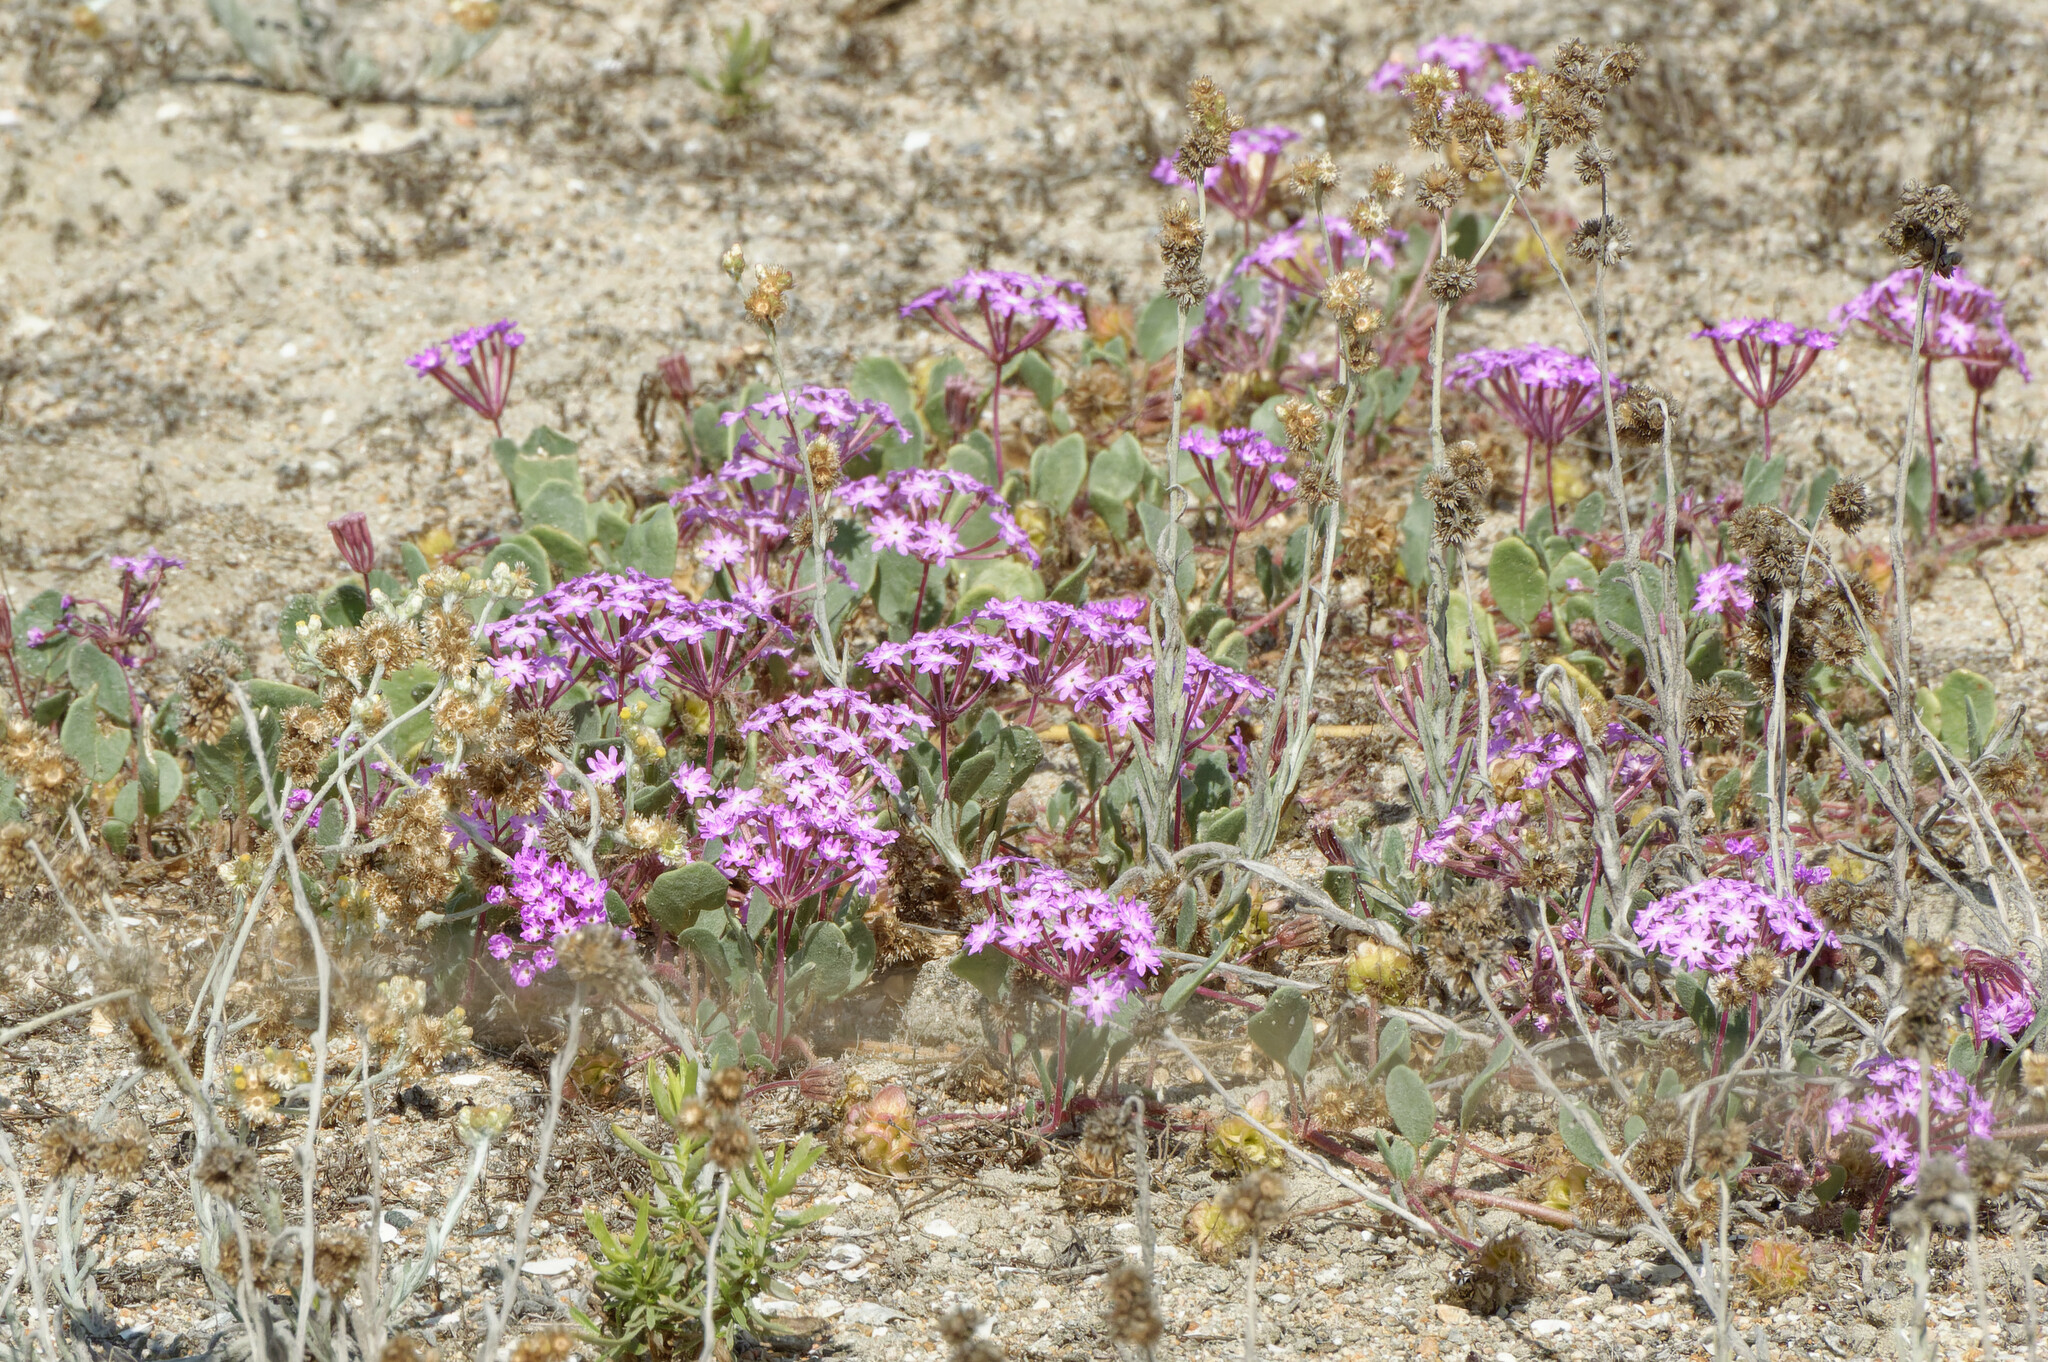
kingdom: Plantae
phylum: Tracheophyta
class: Magnoliopsida
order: Caryophyllales
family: Nyctaginaceae
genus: Abronia
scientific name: Abronia umbellata
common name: Sand-verbena
